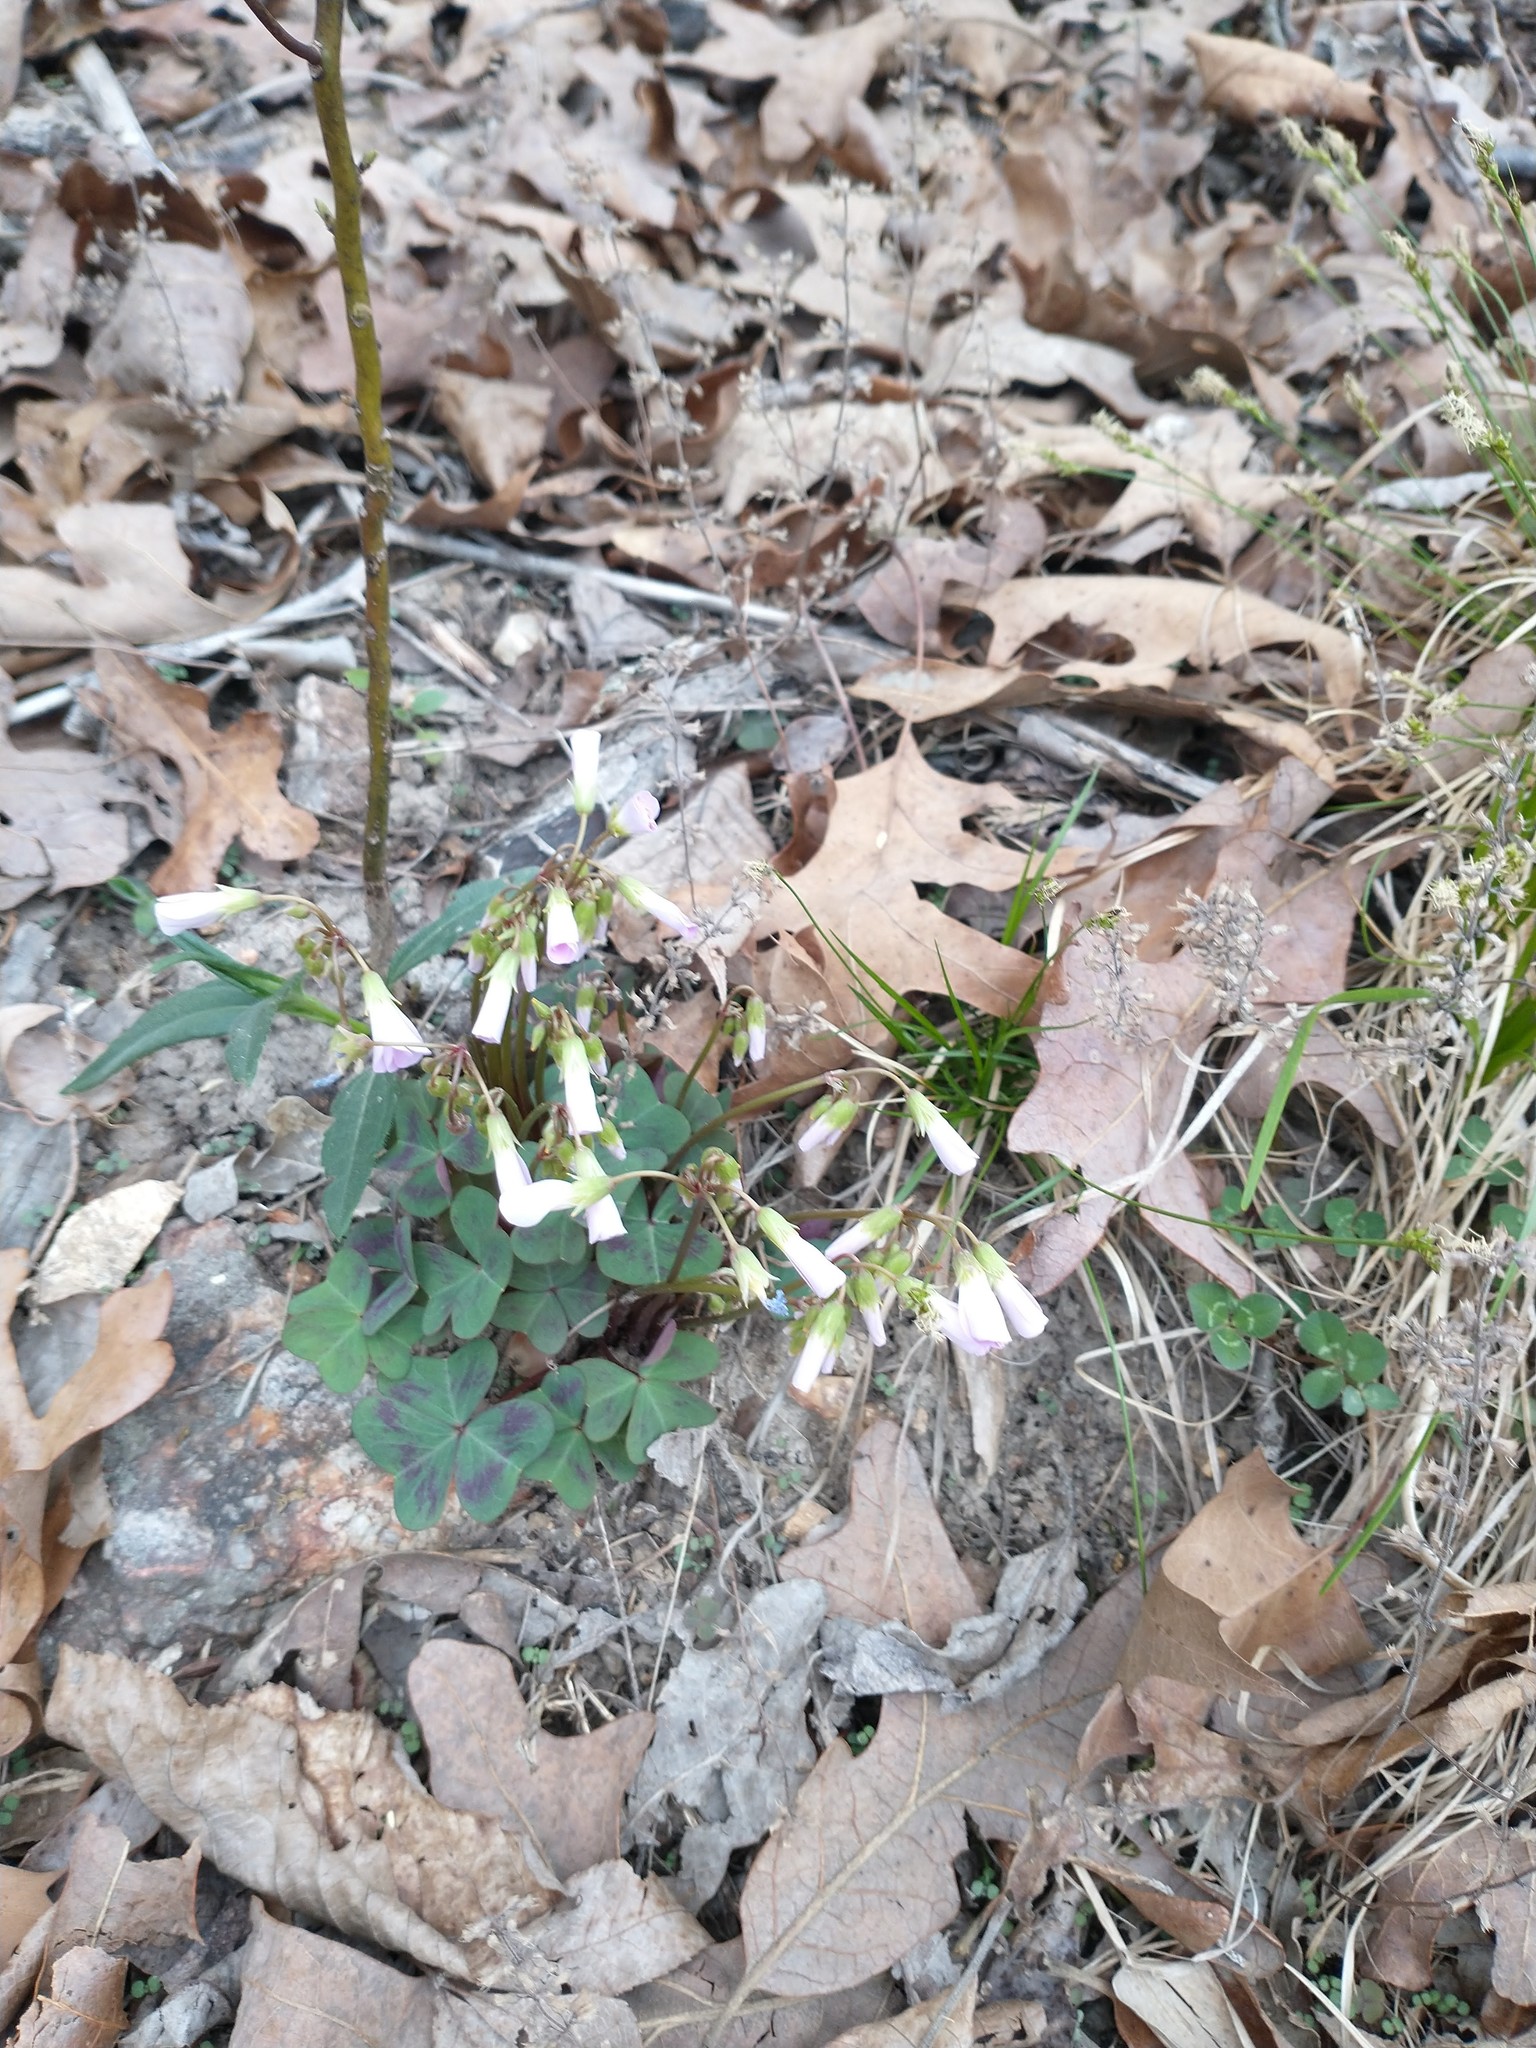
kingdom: Plantae
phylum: Tracheophyta
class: Magnoliopsida
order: Oxalidales
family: Oxalidaceae
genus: Oxalis
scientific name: Oxalis violacea
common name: Violet wood-sorrel
